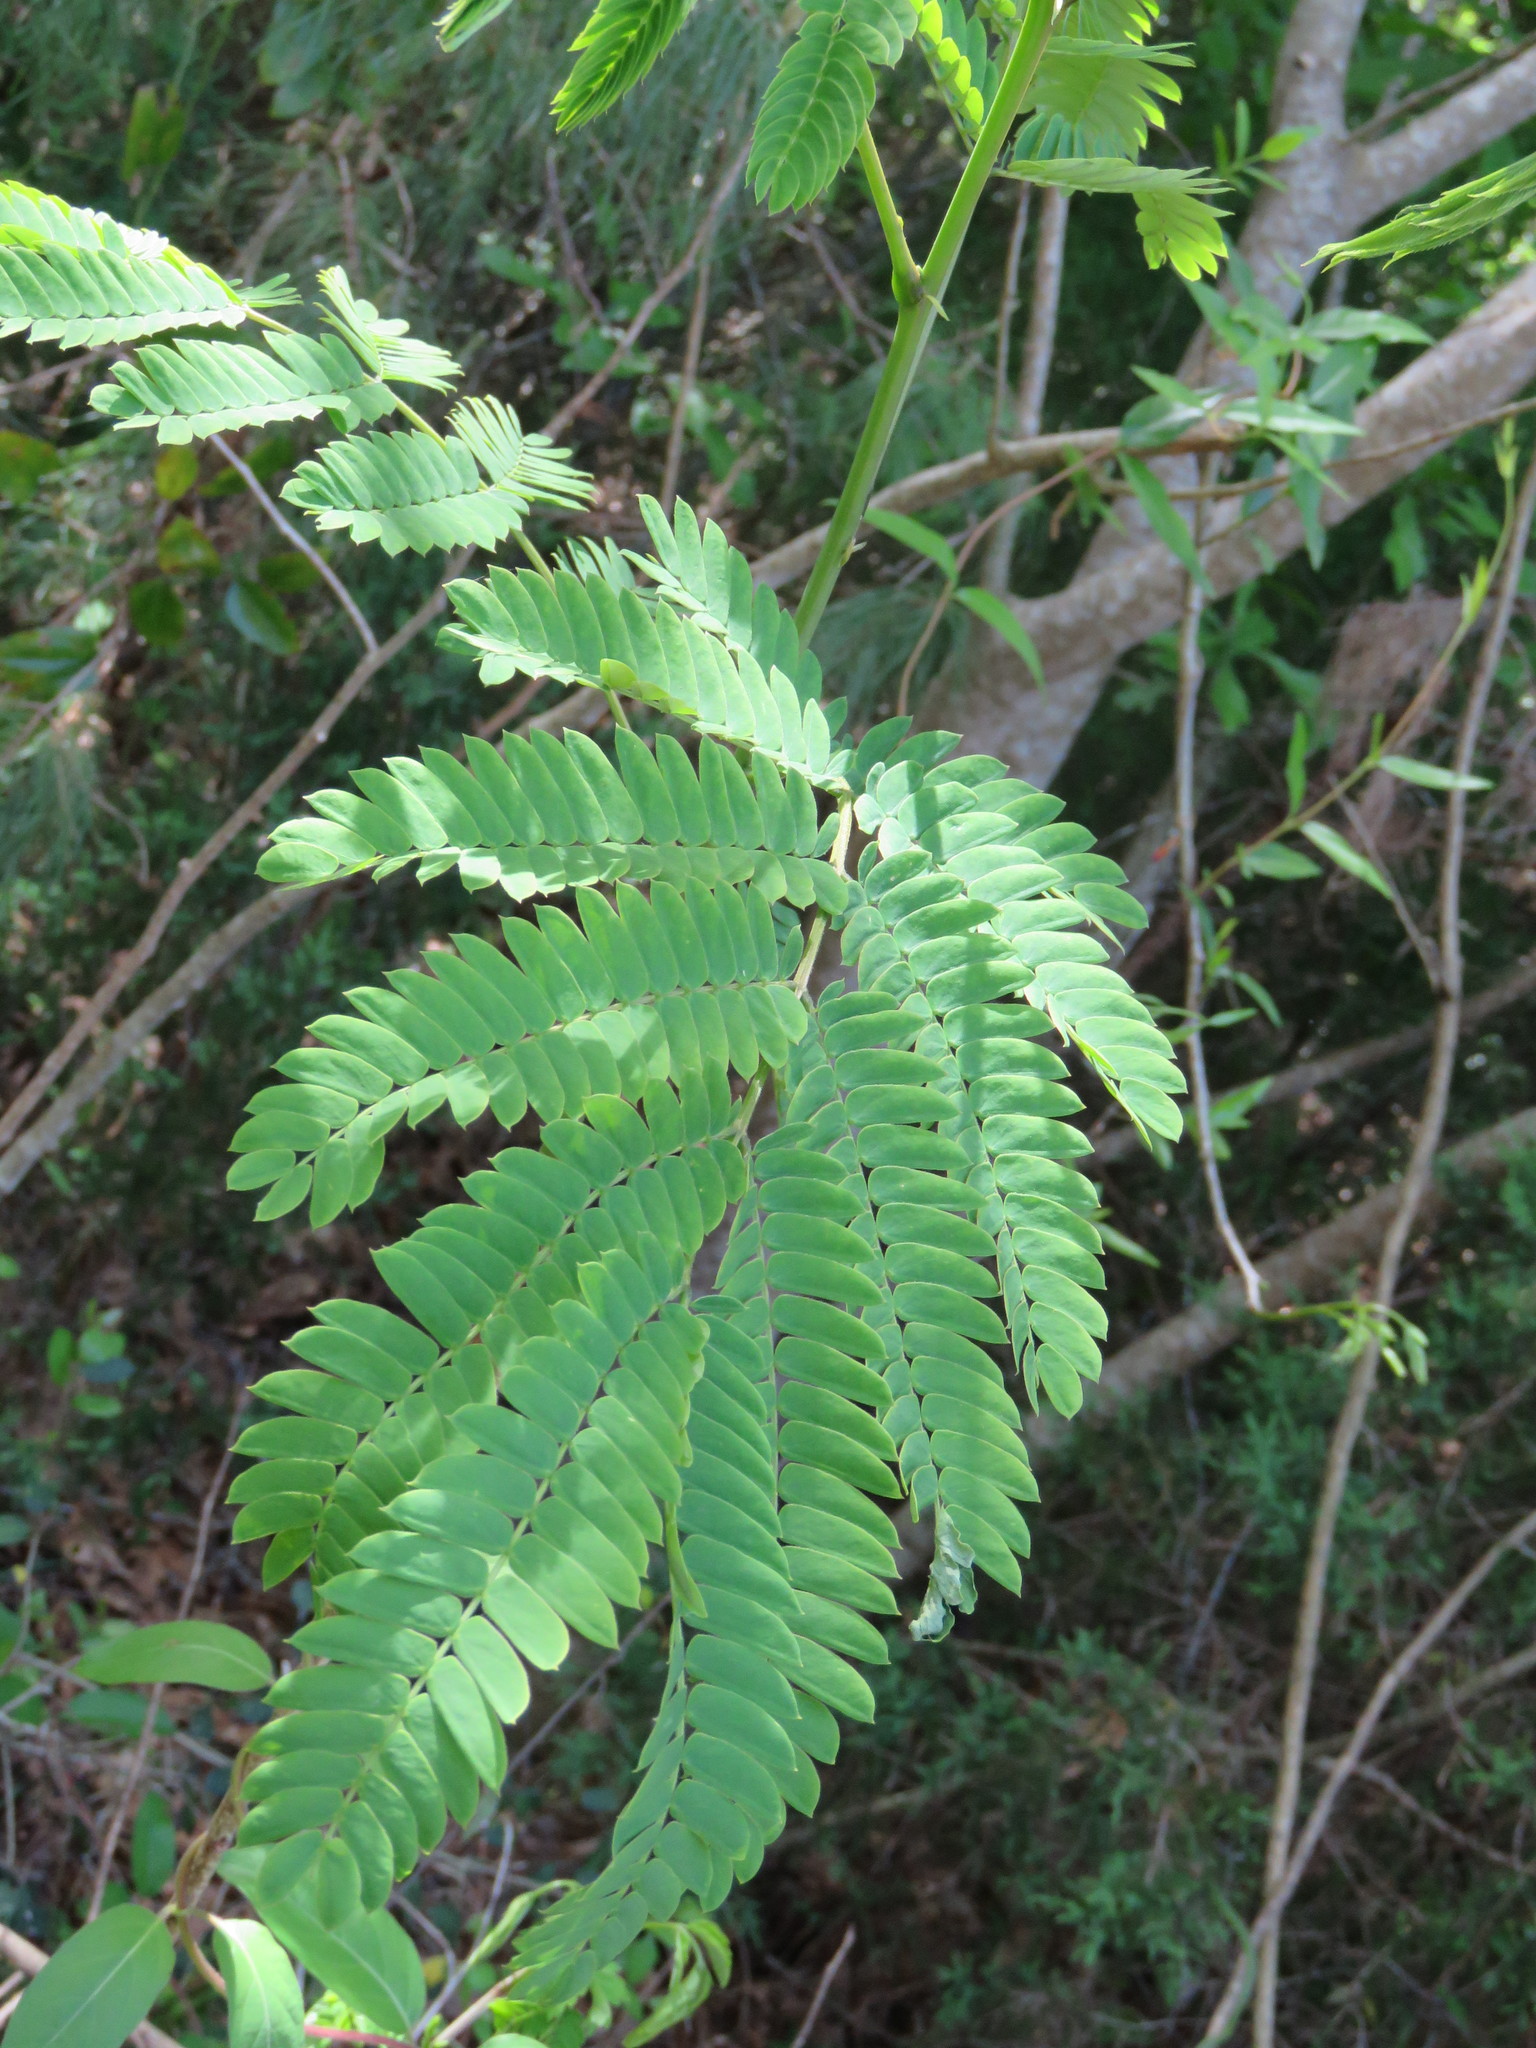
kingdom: Plantae
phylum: Tracheophyta
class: Magnoliopsida
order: Fabales
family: Fabaceae
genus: Albizia
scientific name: Albizia julibrissin
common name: Silktree
